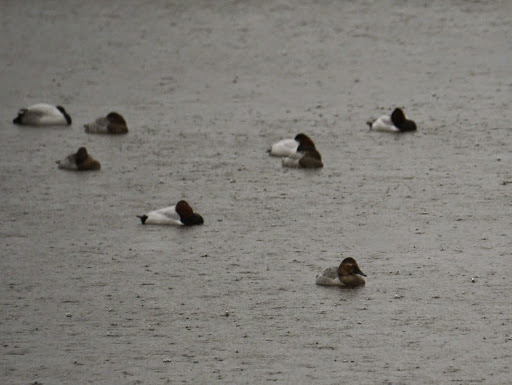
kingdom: Animalia
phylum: Chordata
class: Aves
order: Anseriformes
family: Anatidae
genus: Aythya
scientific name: Aythya valisineria
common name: Canvasback
